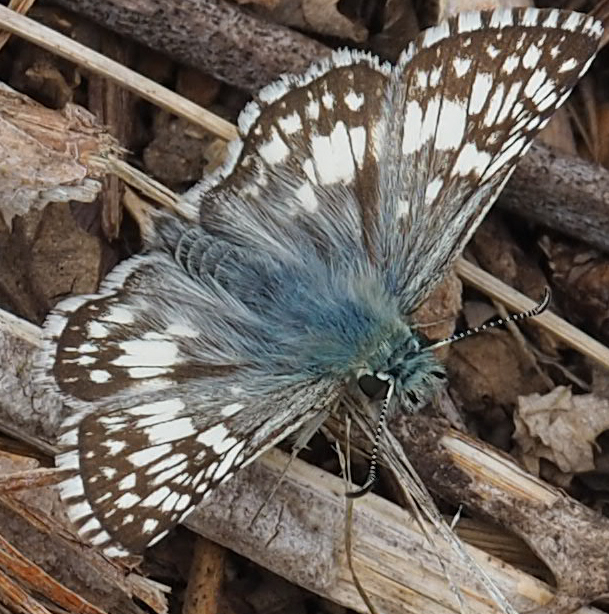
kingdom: Animalia
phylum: Arthropoda
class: Insecta
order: Lepidoptera
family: Hesperiidae
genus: Burnsius
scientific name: Burnsius communis
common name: Common checkered-skipper
